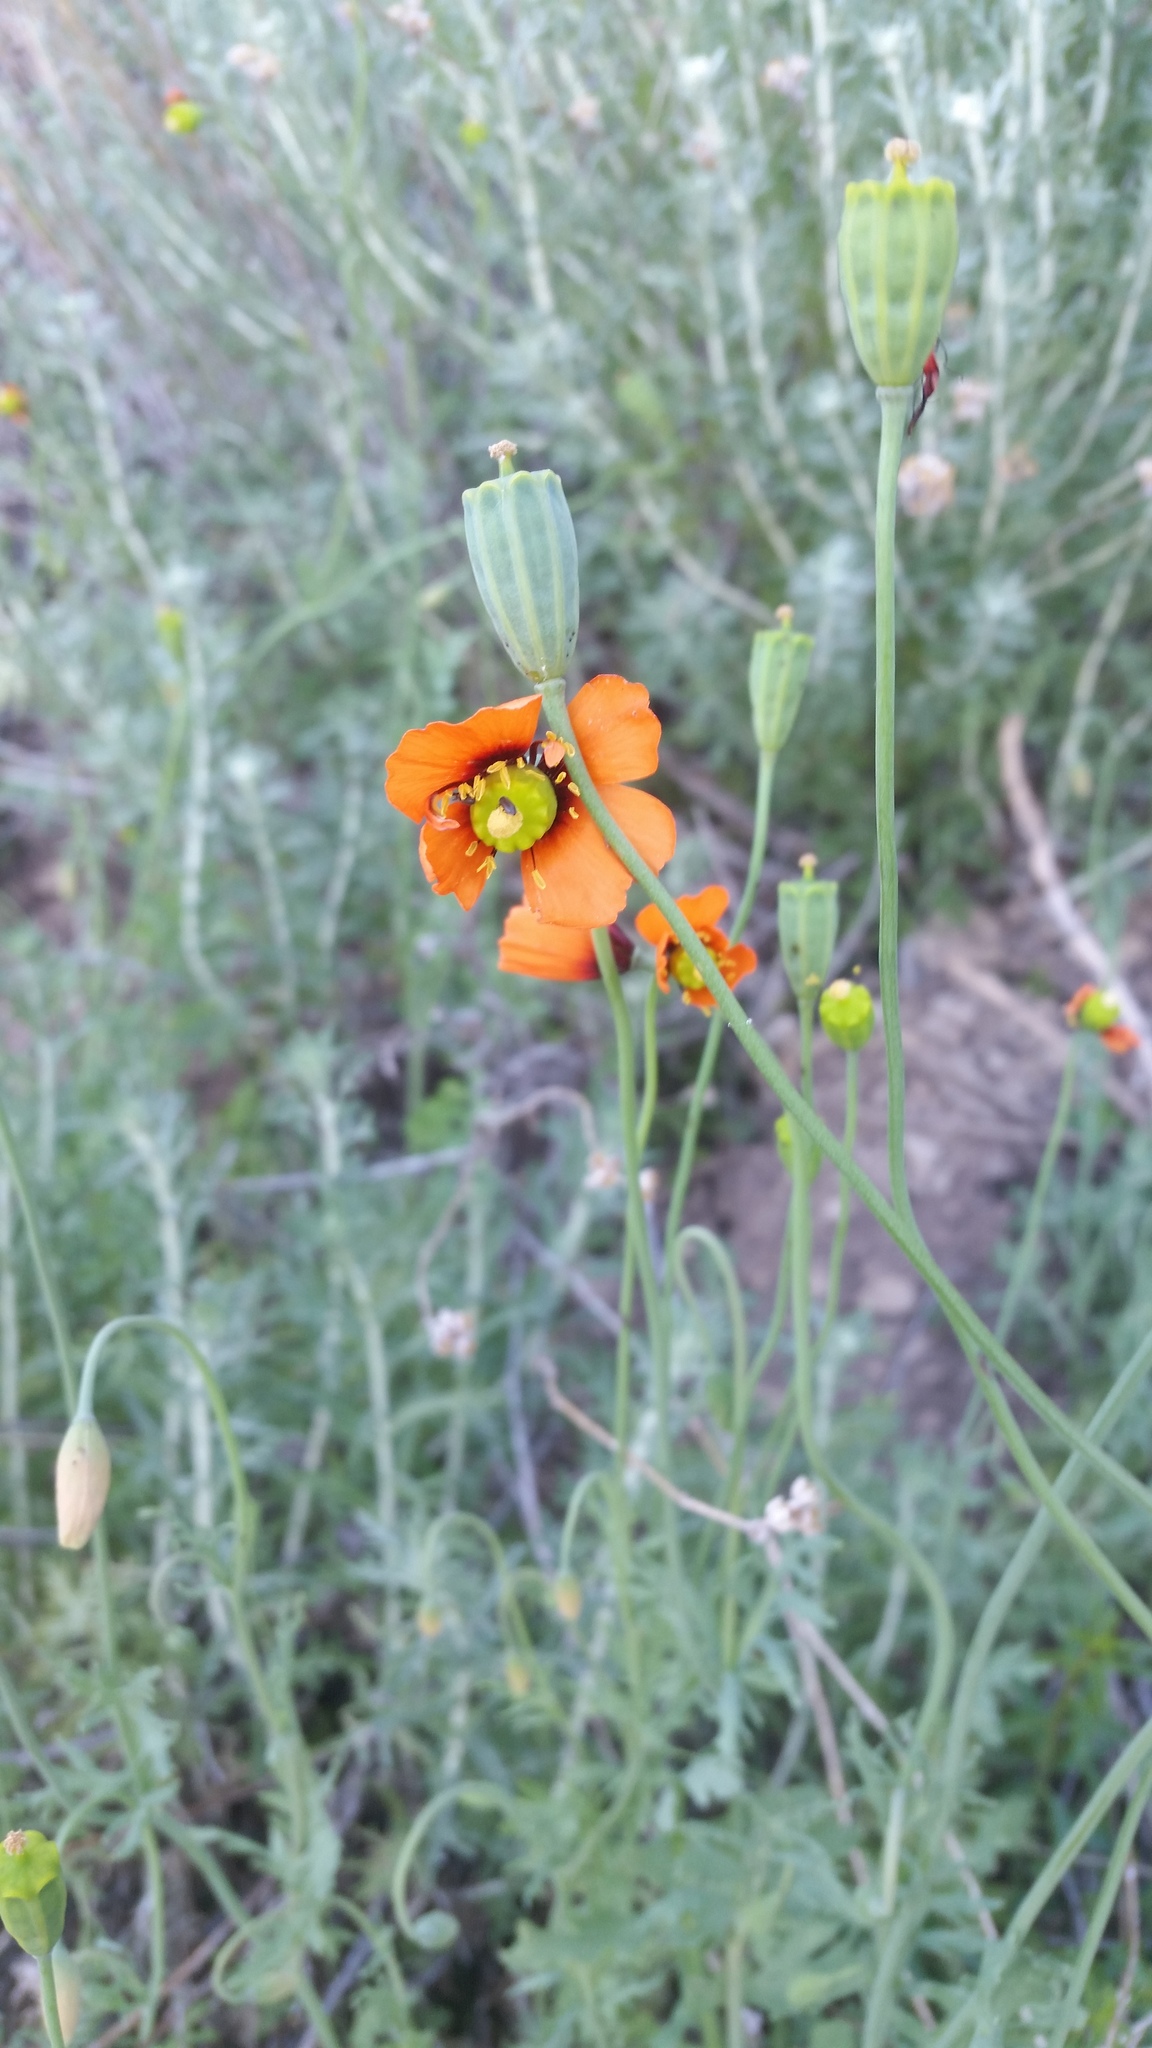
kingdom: Plantae
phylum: Tracheophyta
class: Magnoliopsida
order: Ranunculales
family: Papaveraceae
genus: Stylomecon
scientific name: Stylomecon heterophylla
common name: Flaming-poppy
